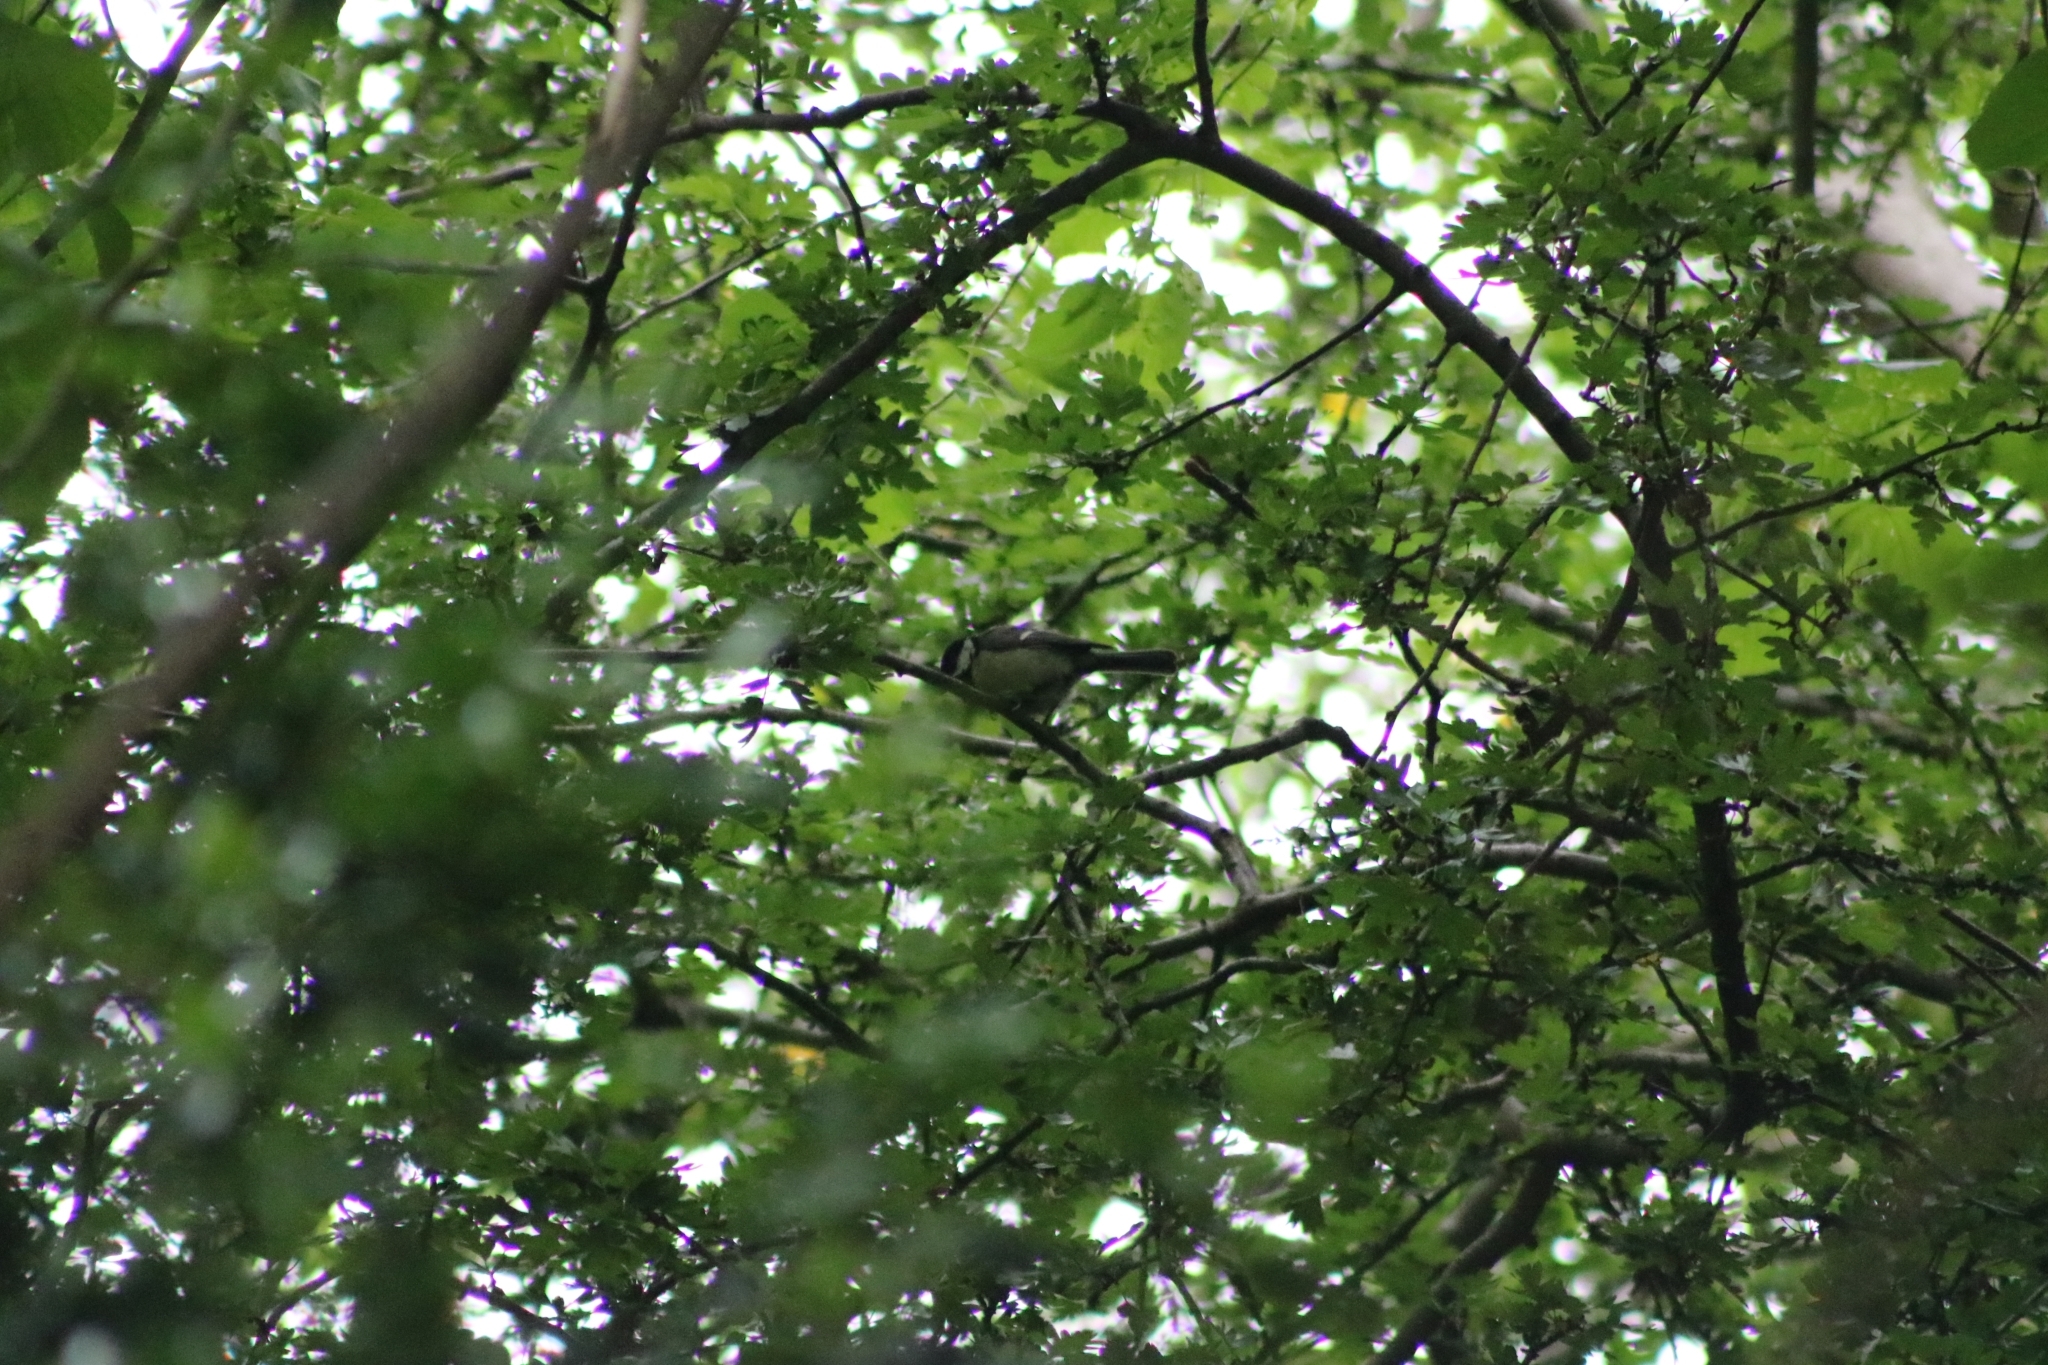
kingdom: Animalia
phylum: Chordata
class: Aves
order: Passeriformes
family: Paridae
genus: Parus
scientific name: Parus major
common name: Great tit
